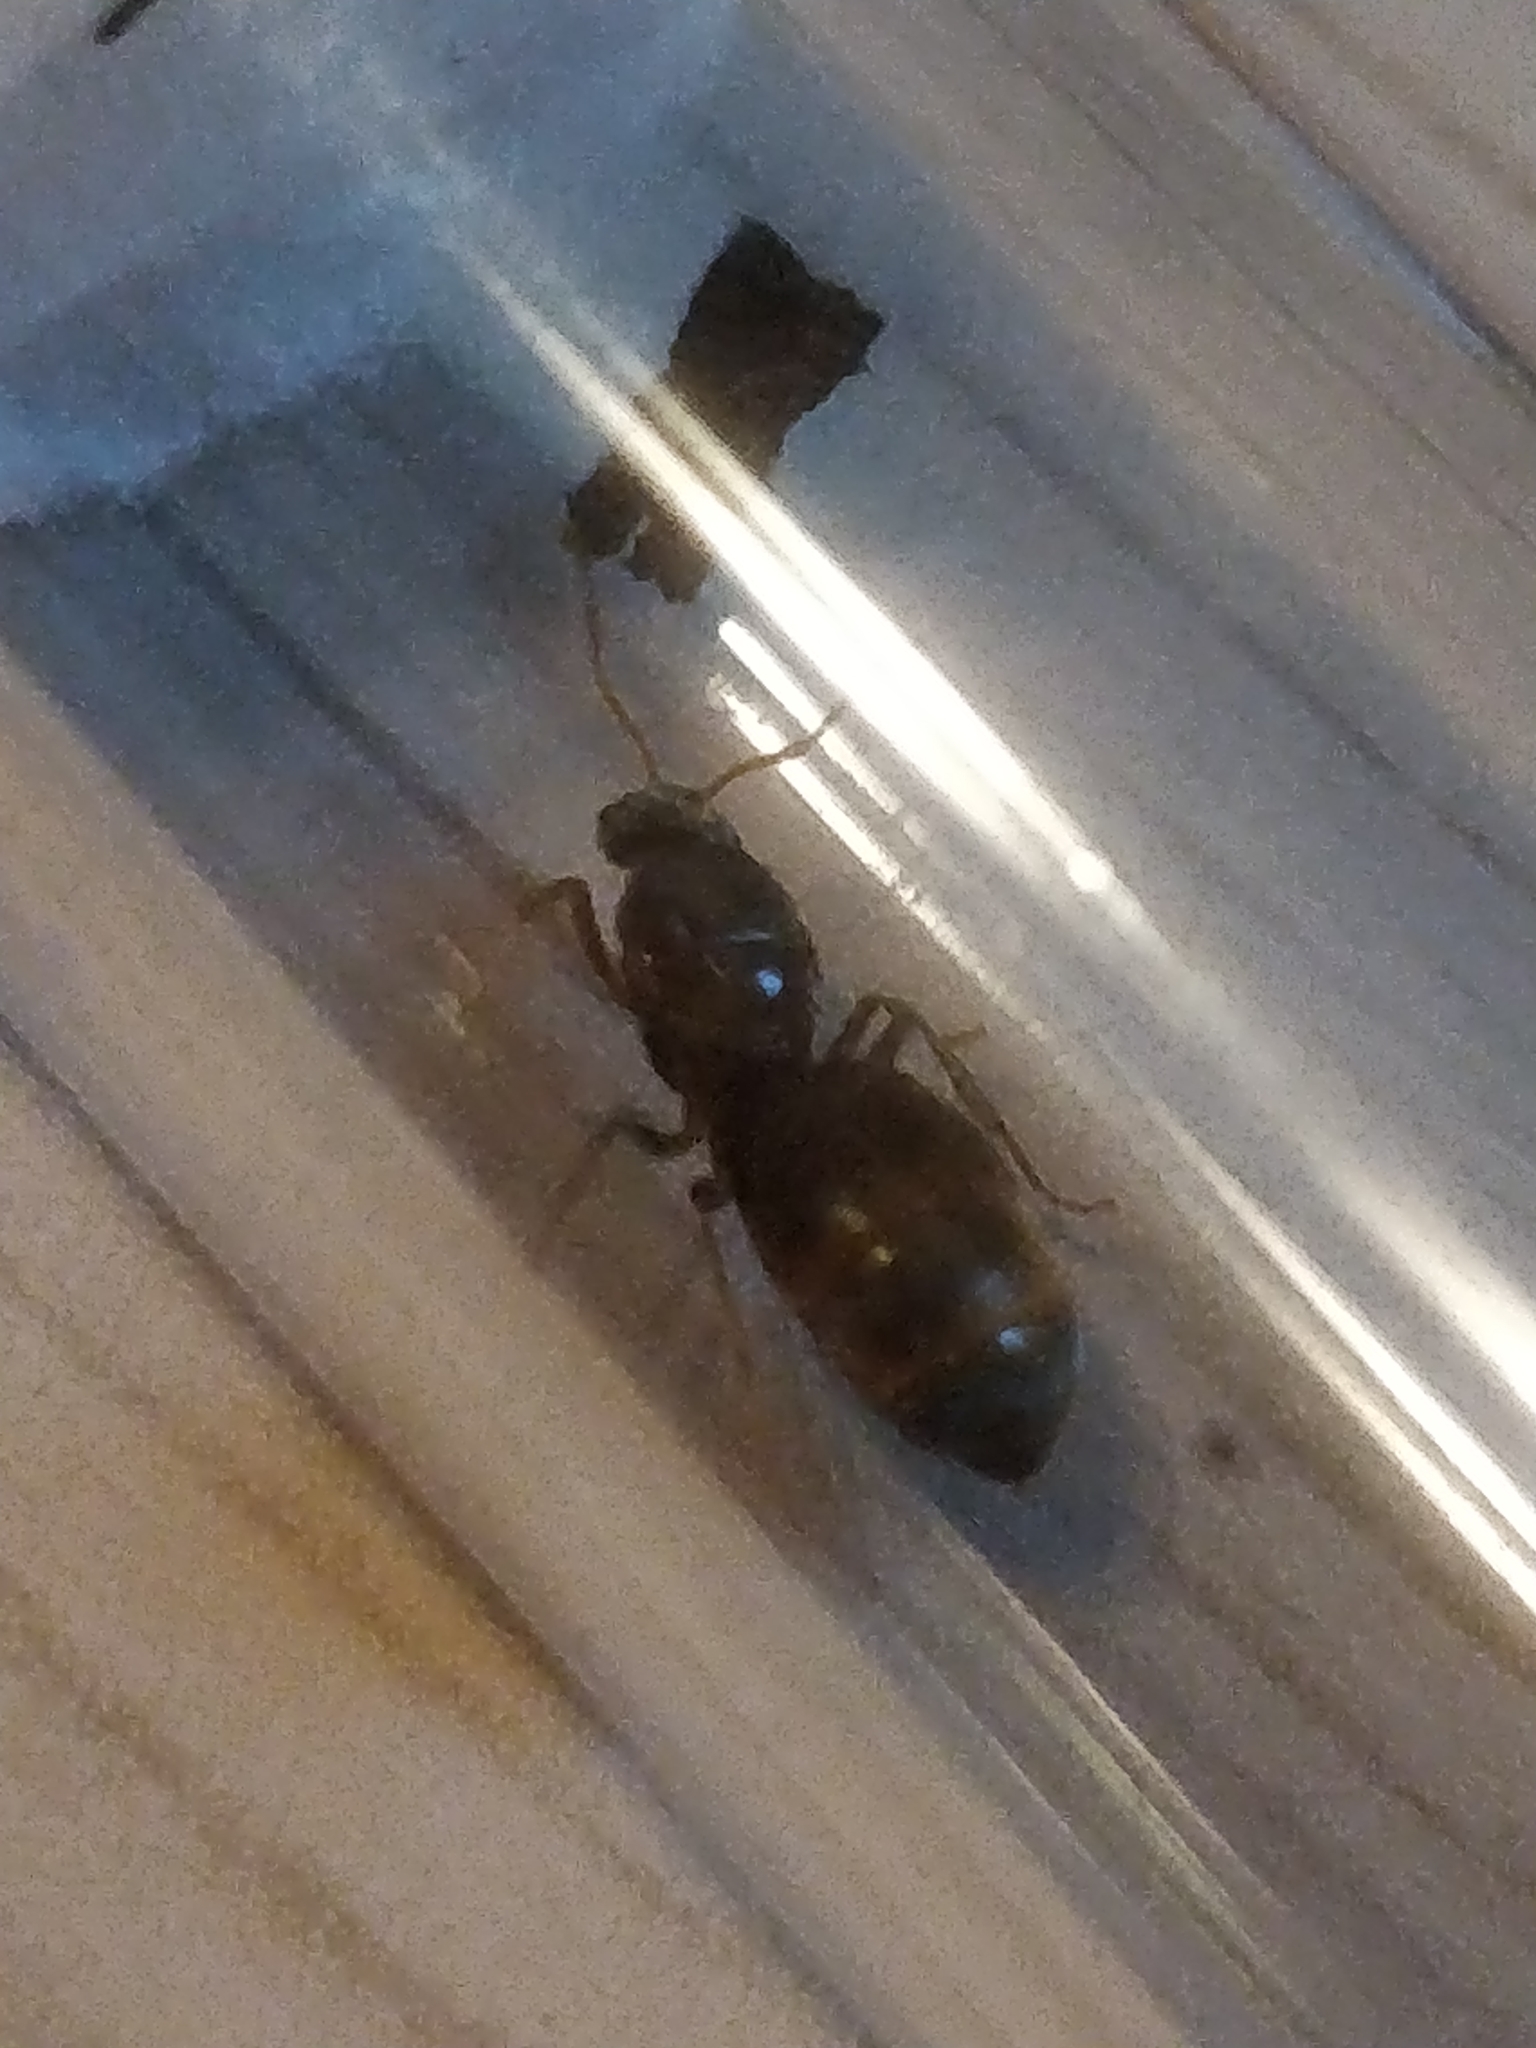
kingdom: Animalia
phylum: Arthropoda
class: Insecta
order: Hymenoptera
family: Formicidae
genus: Lasius
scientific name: Lasius neoniger
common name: Turfgrass ant
